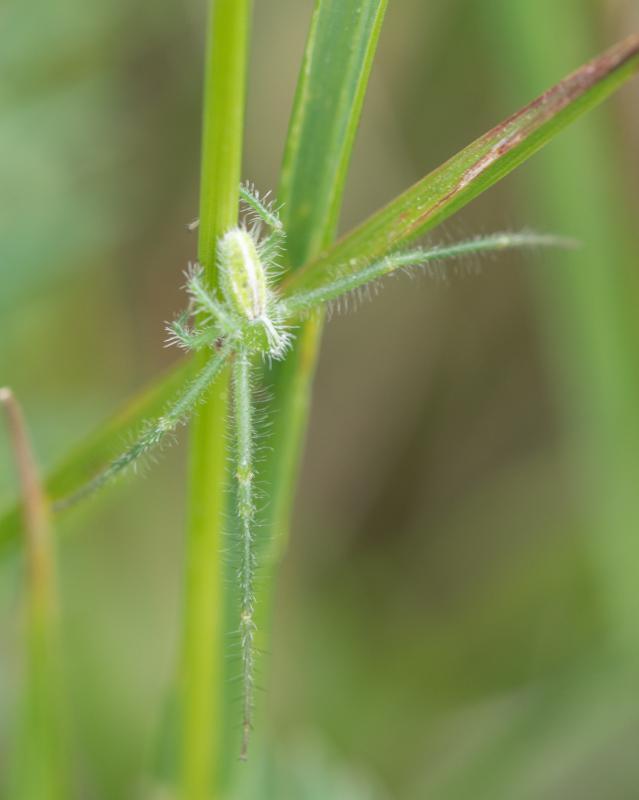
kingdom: Animalia
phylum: Arthropoda
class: Arachnida
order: Araneae
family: Thomisidae
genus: Heriaeus
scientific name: Heriaeus oblongus
